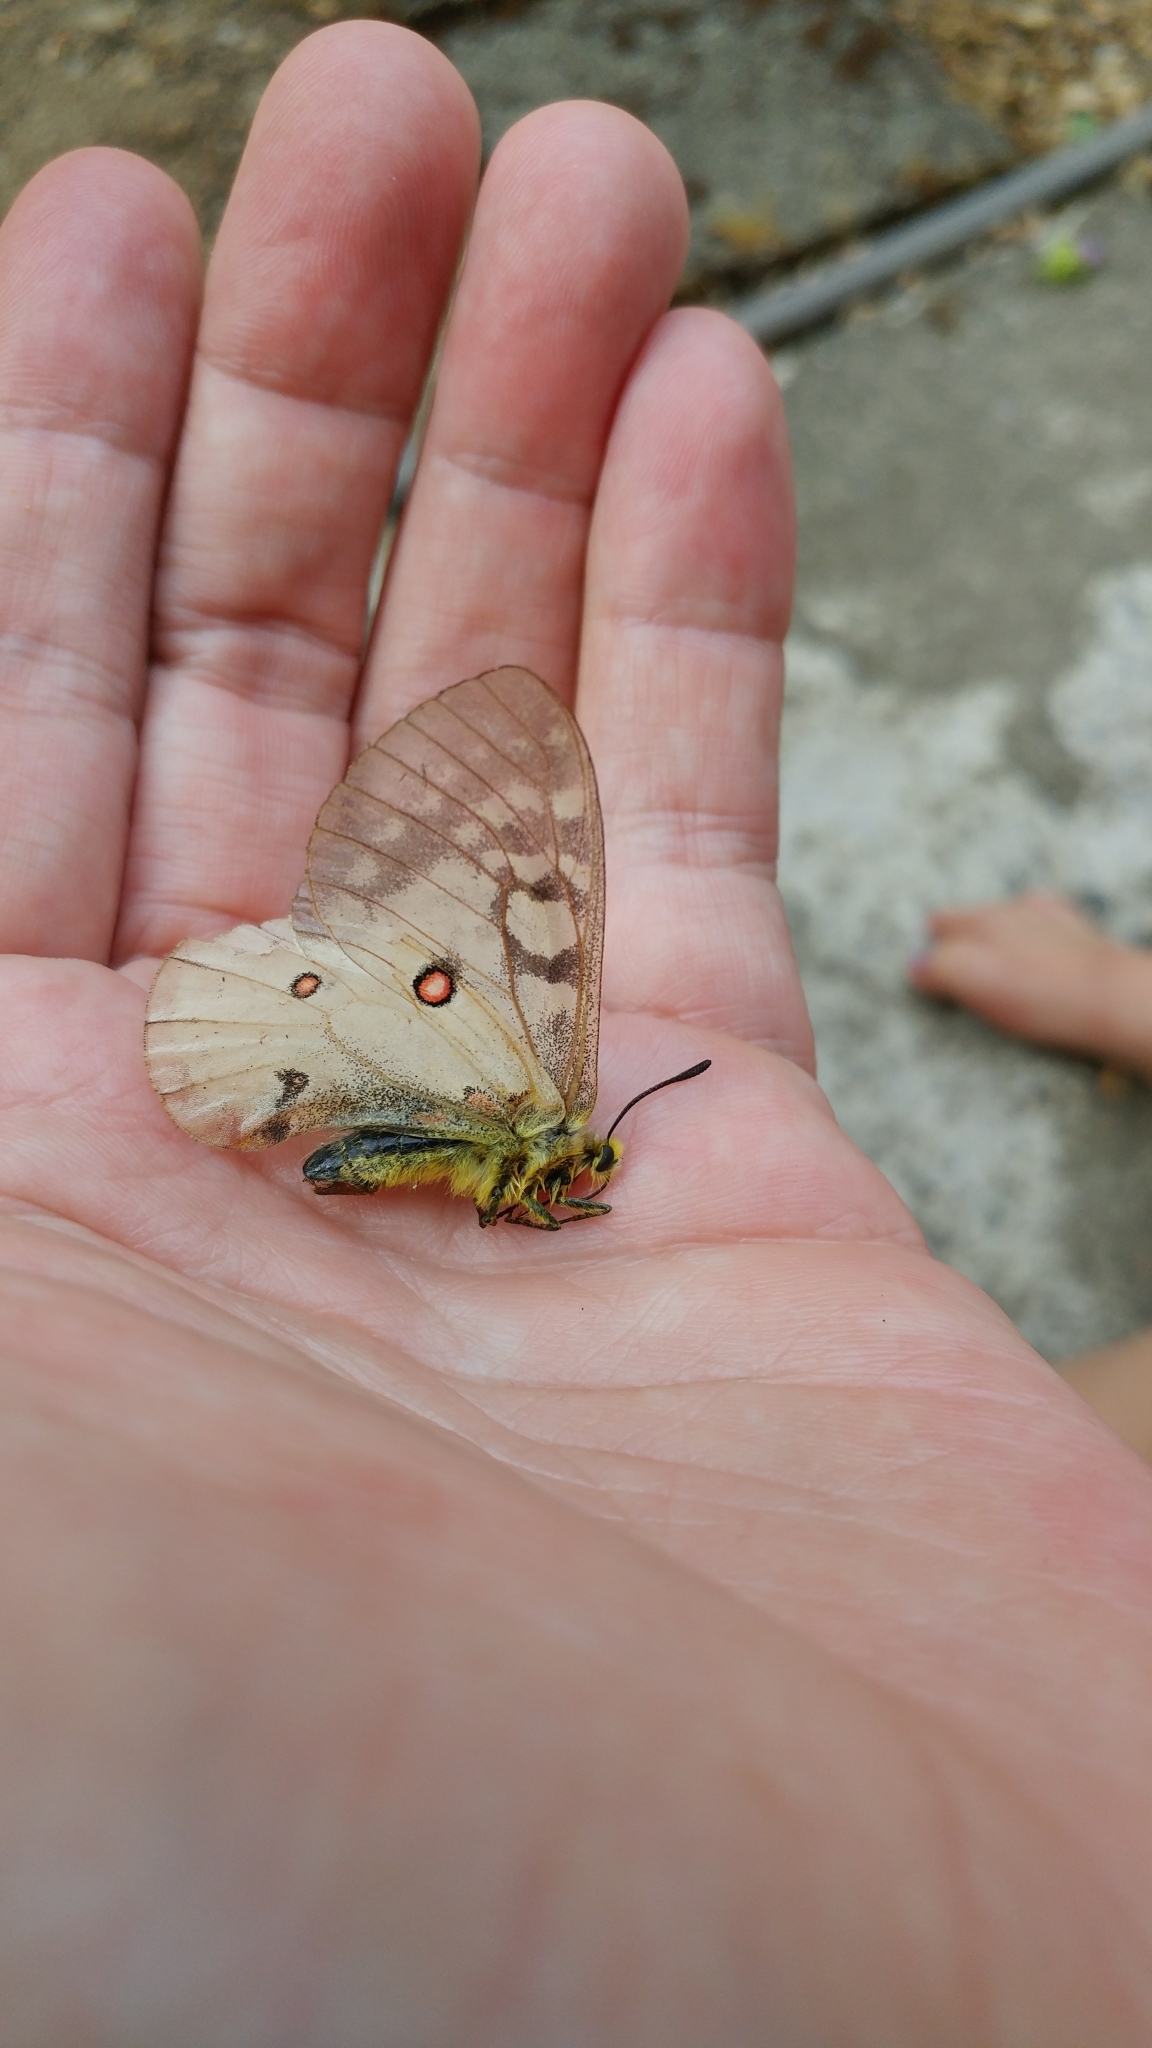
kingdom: Animalia
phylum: Arthropoda
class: Insecta
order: Lepidoptera
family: Papilionidae
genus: Parnassius
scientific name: Parnassius clodius
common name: American apollo
